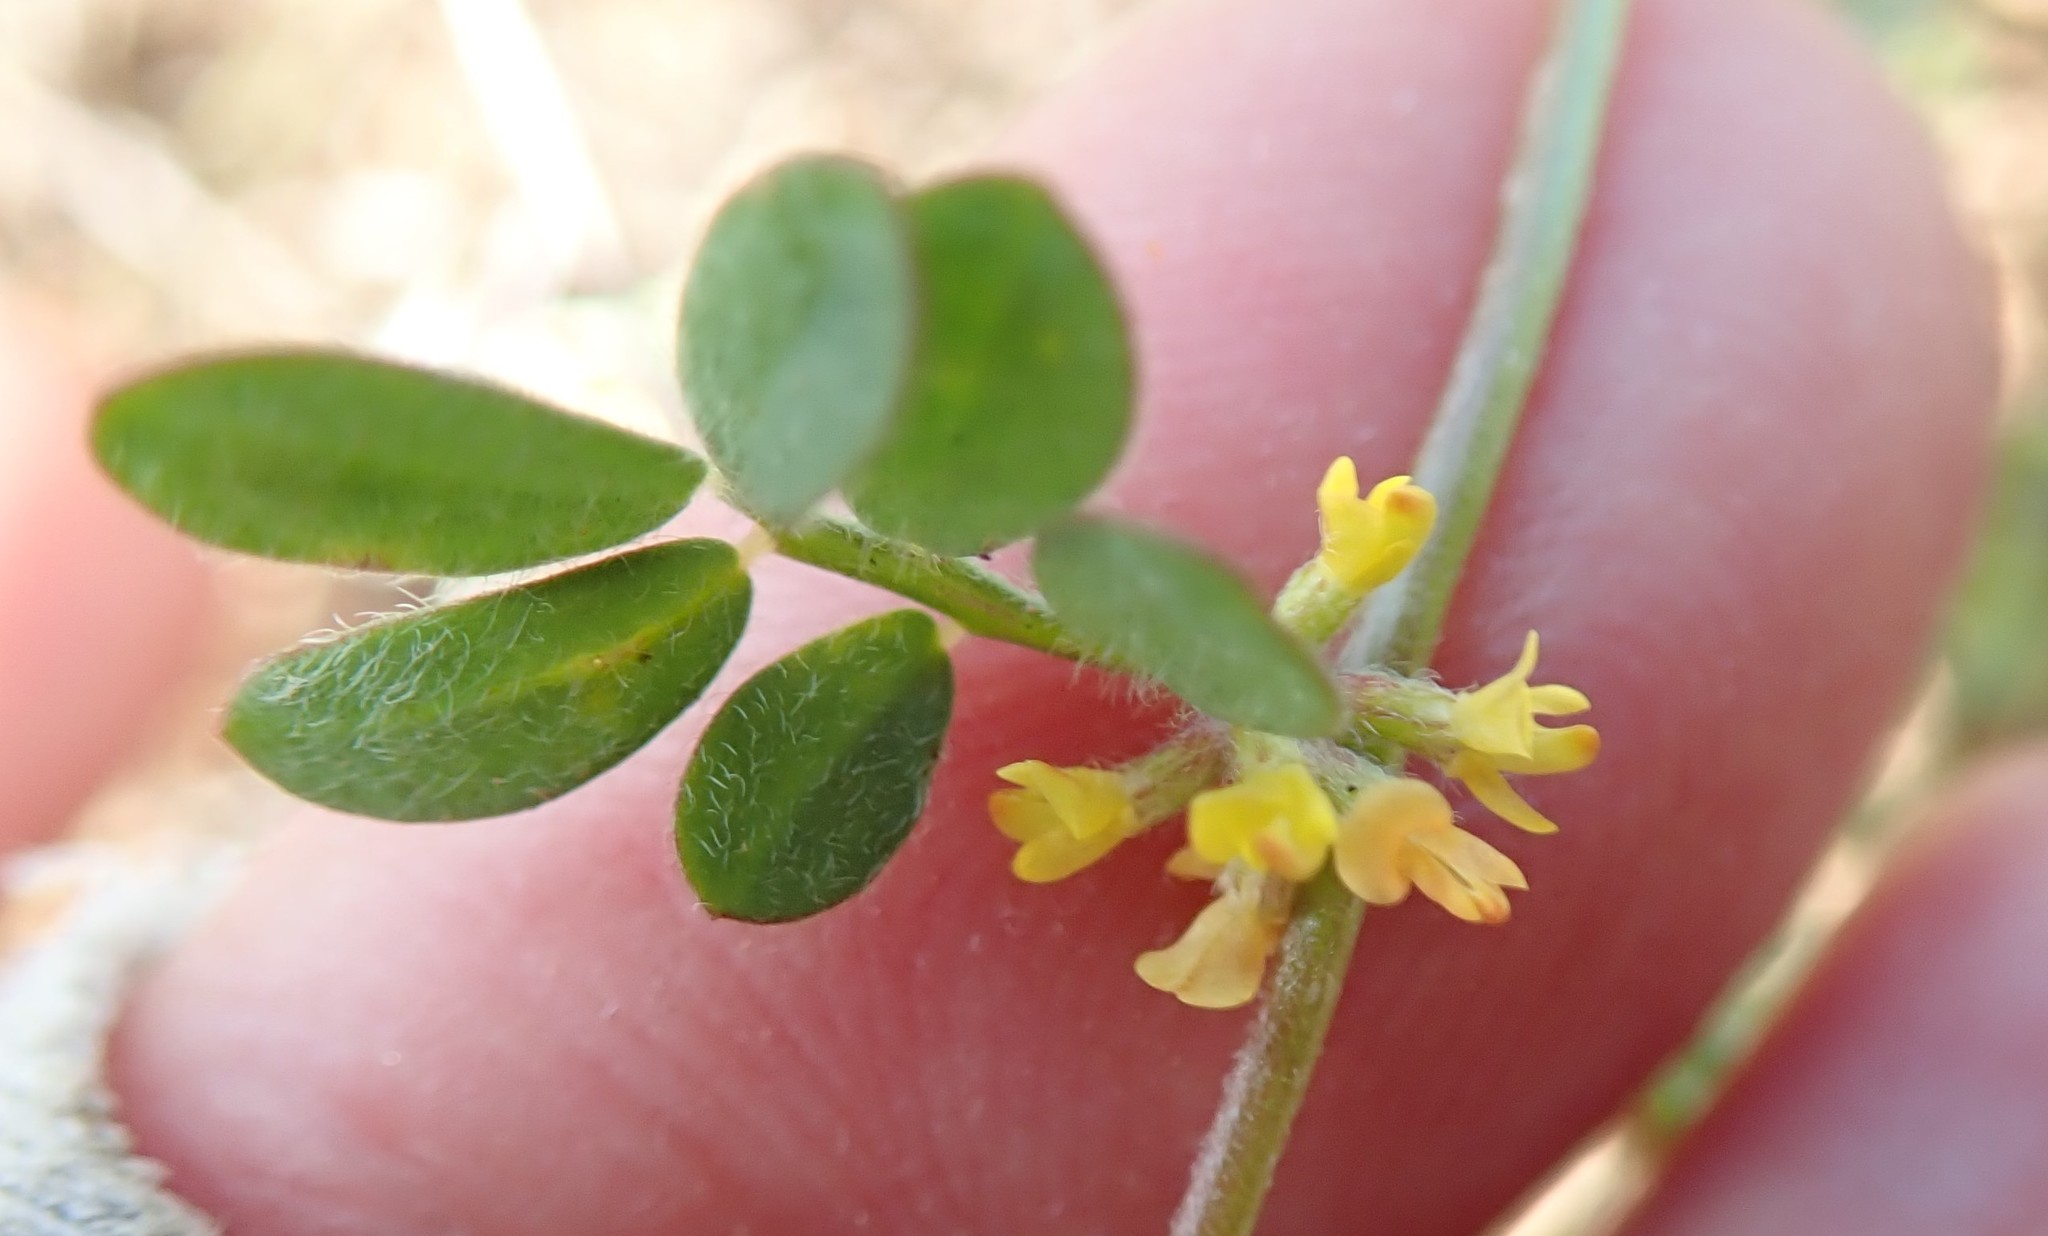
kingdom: Plantae
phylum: Tracheophyta
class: Magnoliopsida
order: Fabales
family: Fabaceae
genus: Acmispon
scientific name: Acmispon micranthus
